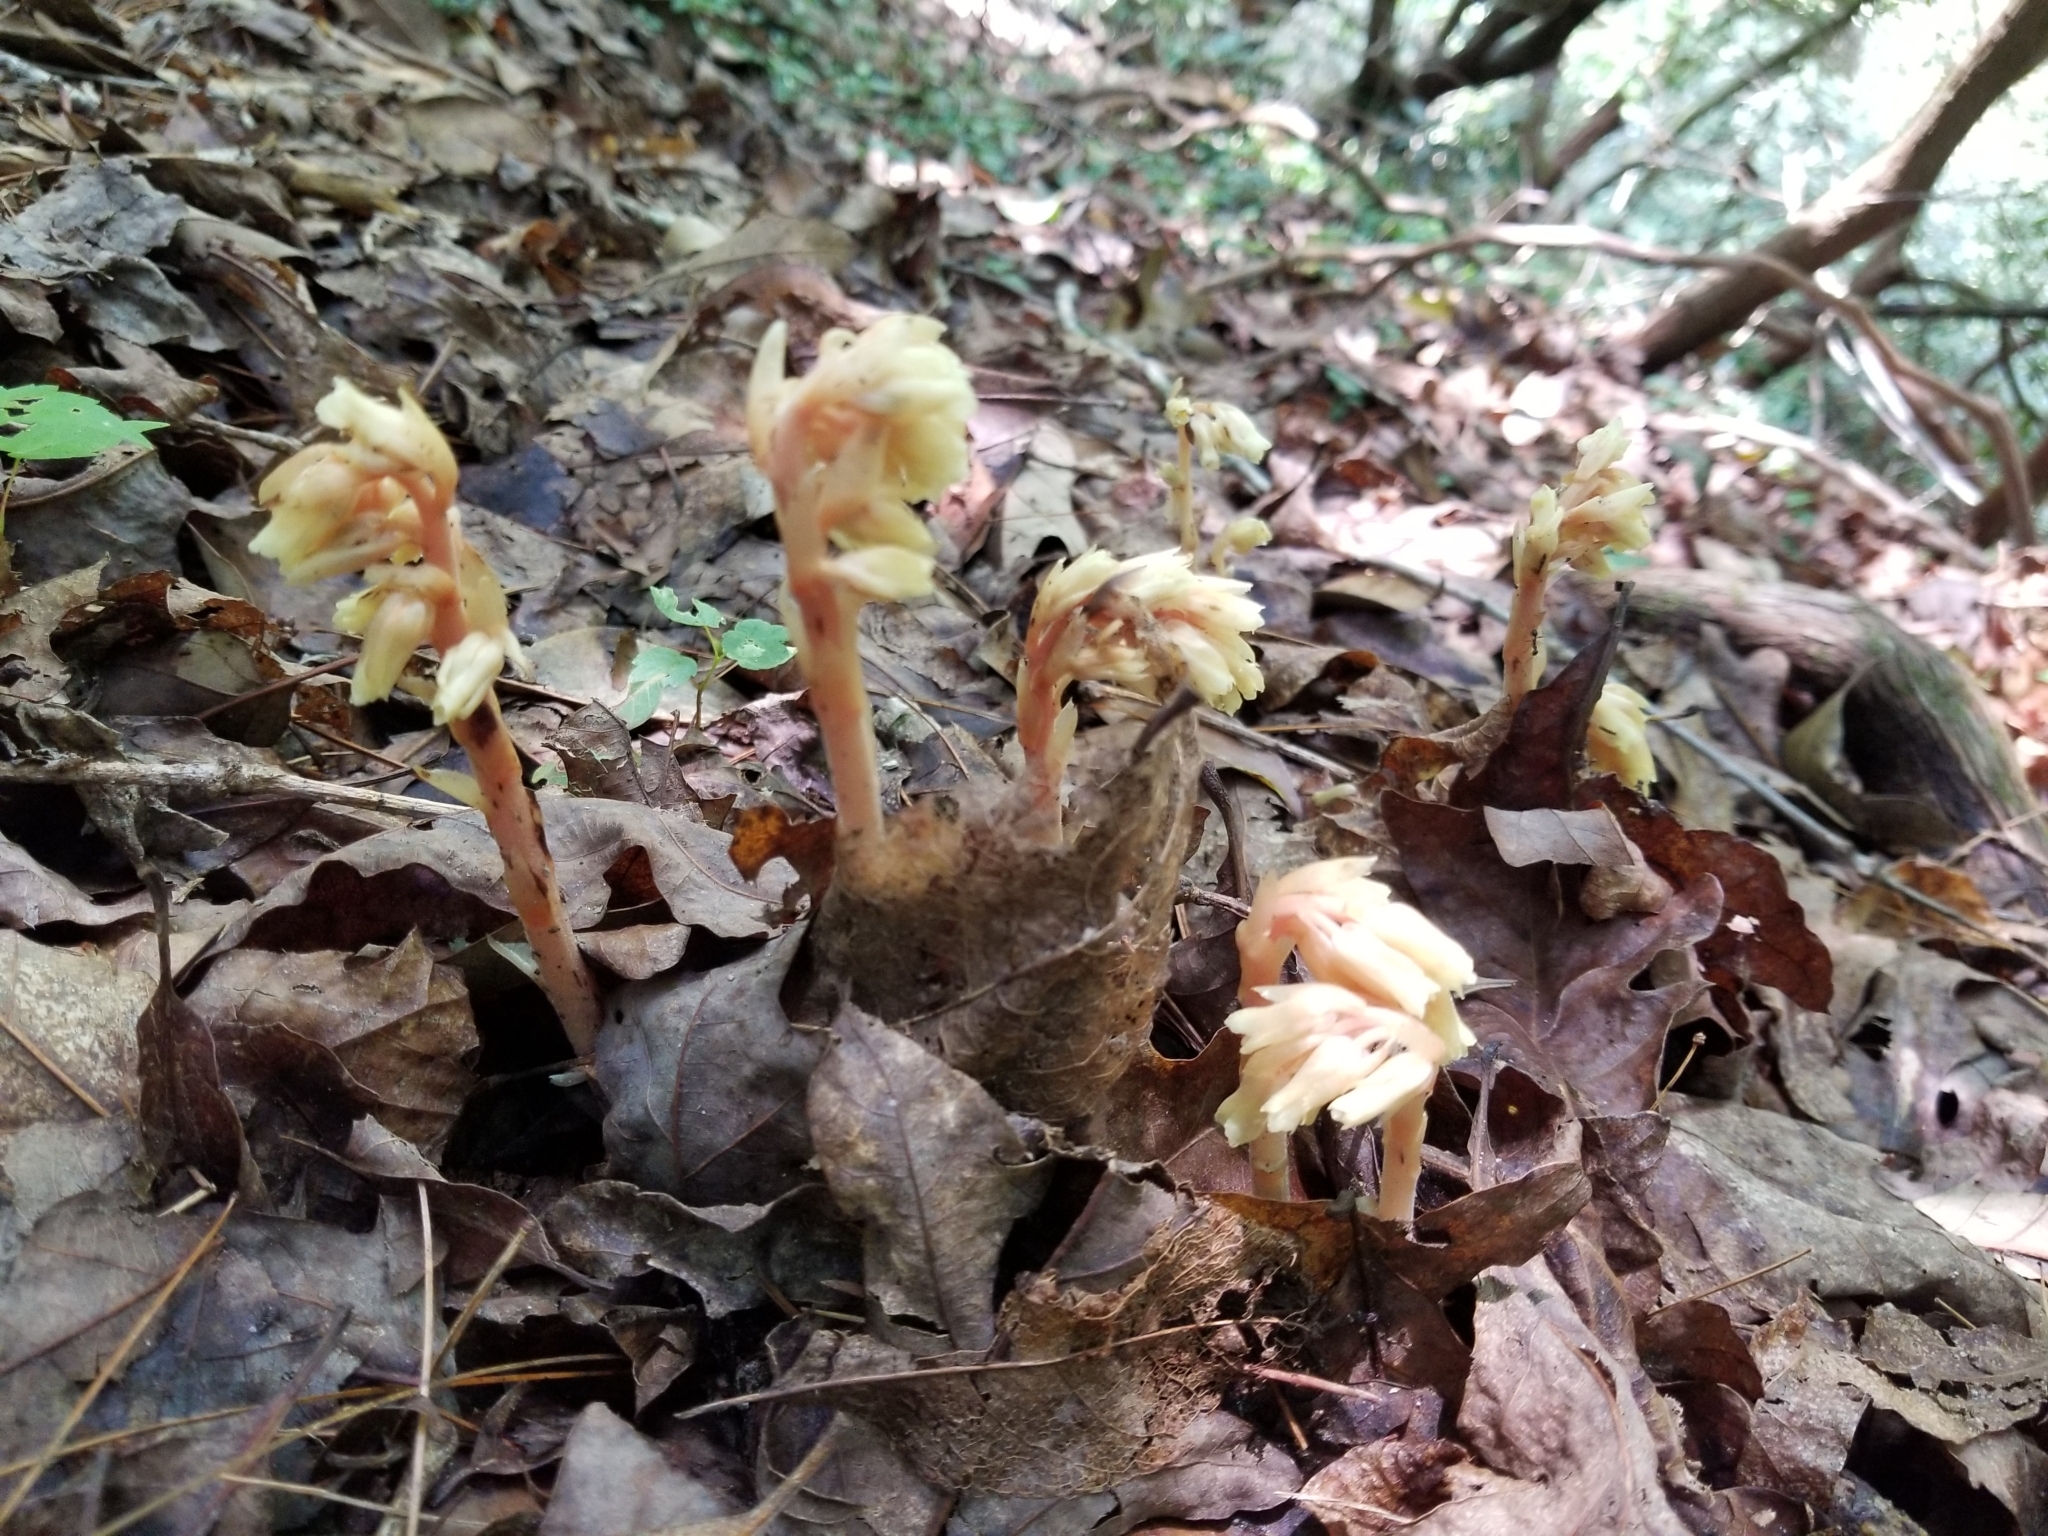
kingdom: Plantae
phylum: Tracheophyta
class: Magnoliopsida
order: Ericales
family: Ericaceae
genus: Hypopitys
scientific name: Hypopitys monotropa
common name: Yellow bird's-nest
